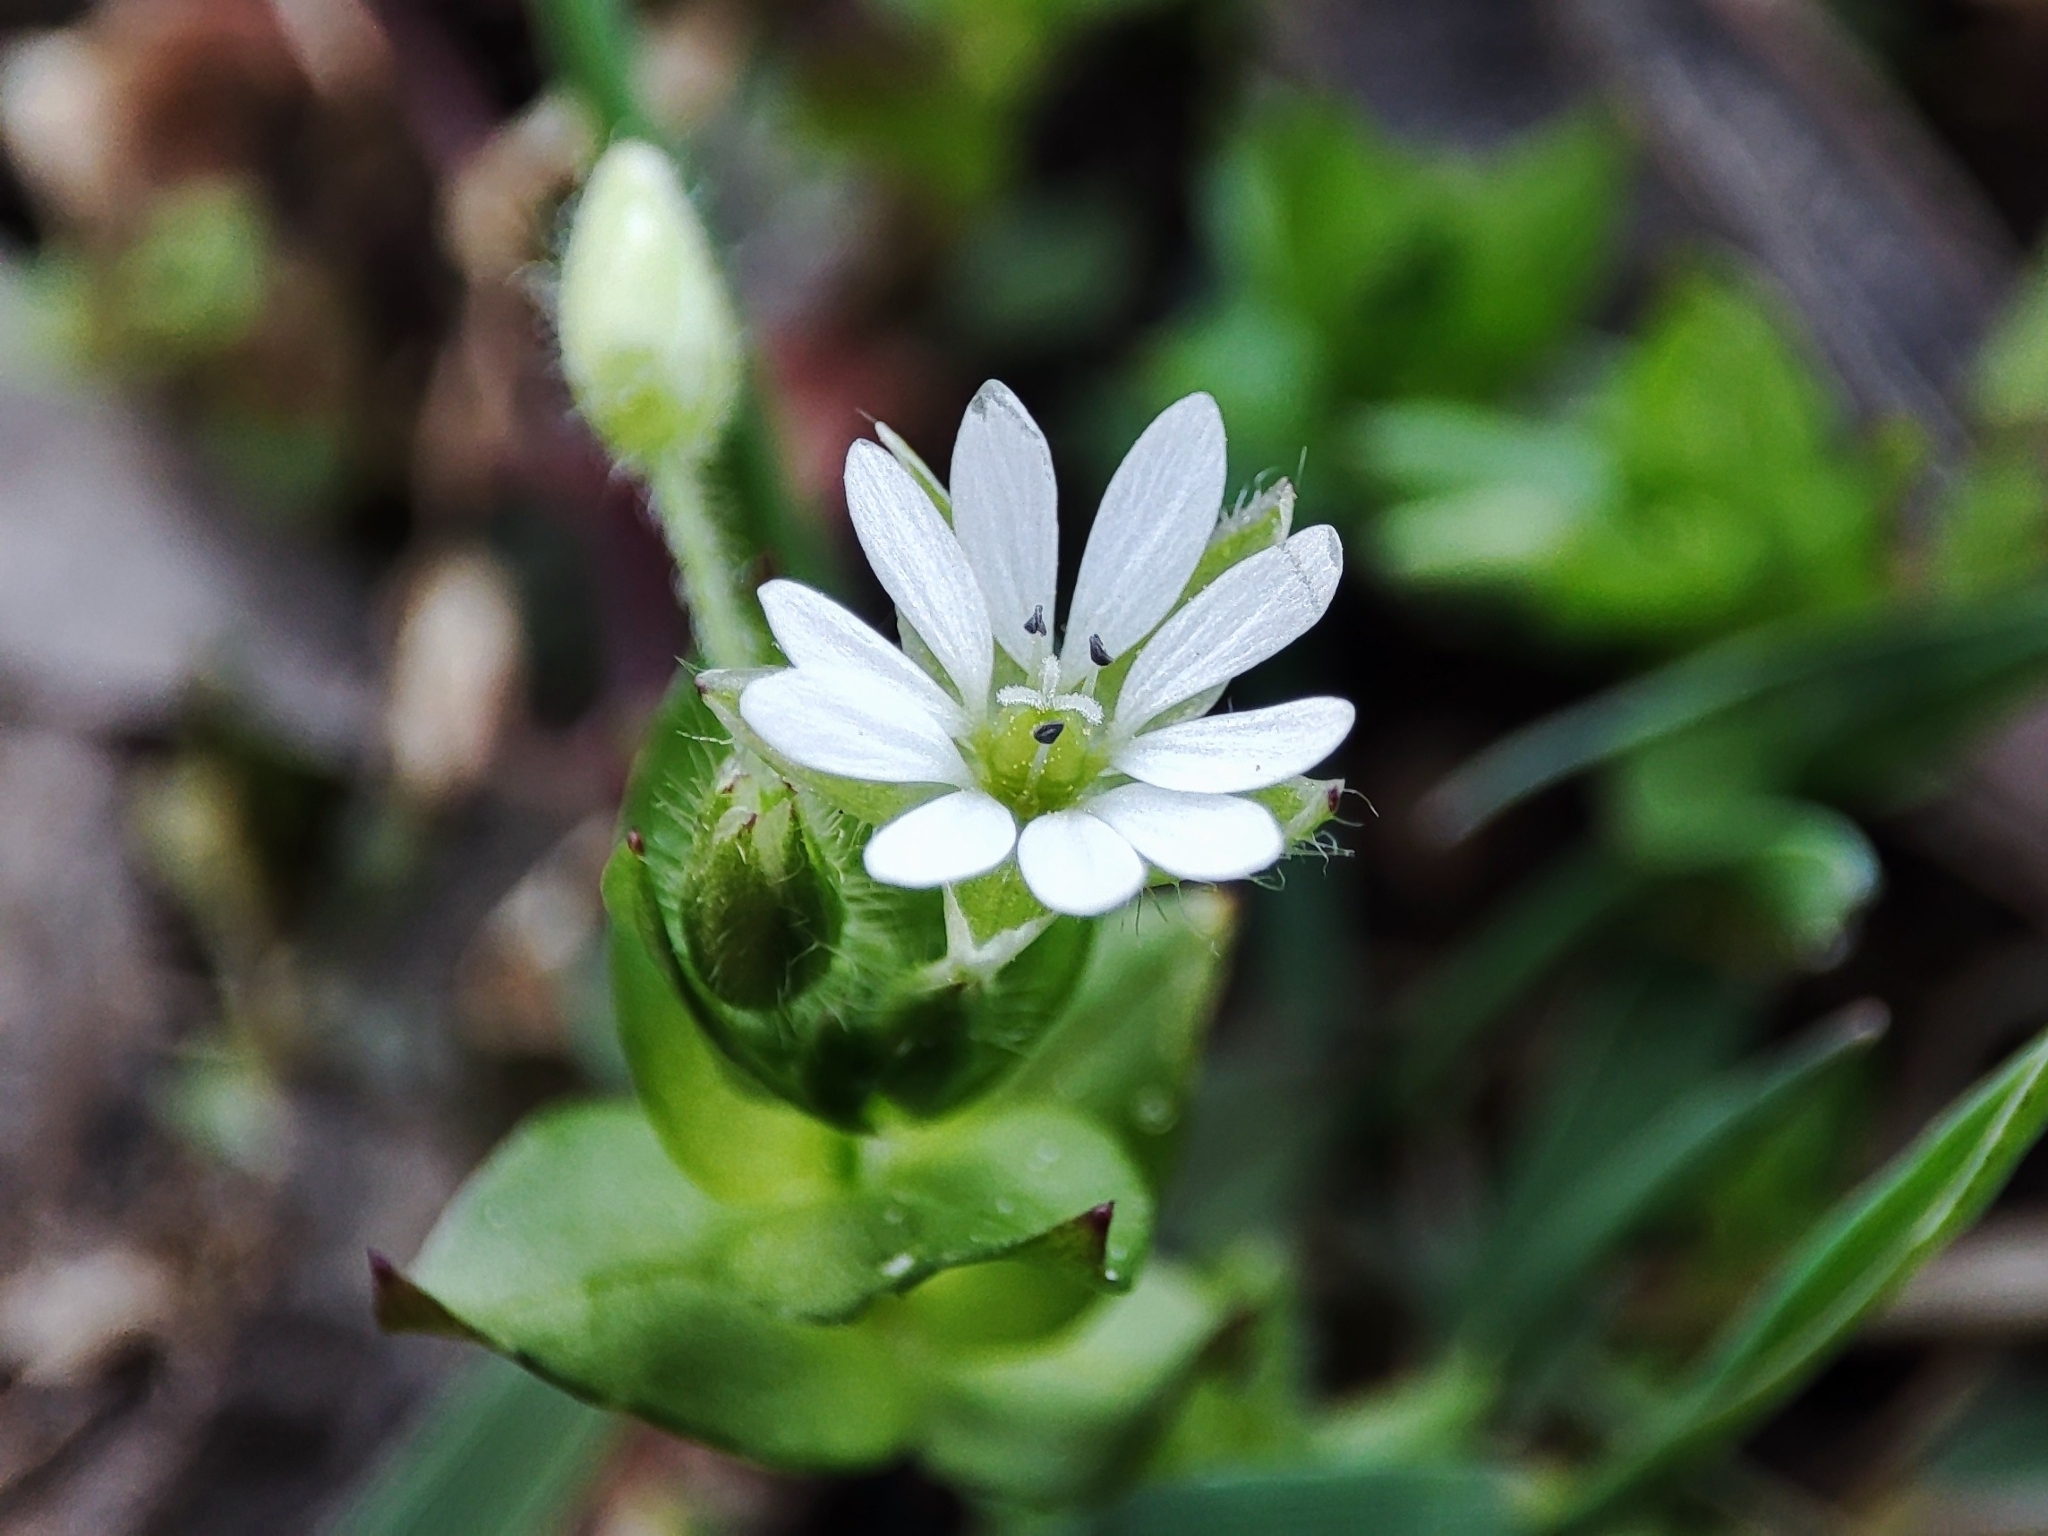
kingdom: Plantae
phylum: Tracheophyta
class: Magnoliopsida
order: Caryophyllales
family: Caryophyllaceae
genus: Stellaria
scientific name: Stellaria media
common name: Common chickweed
